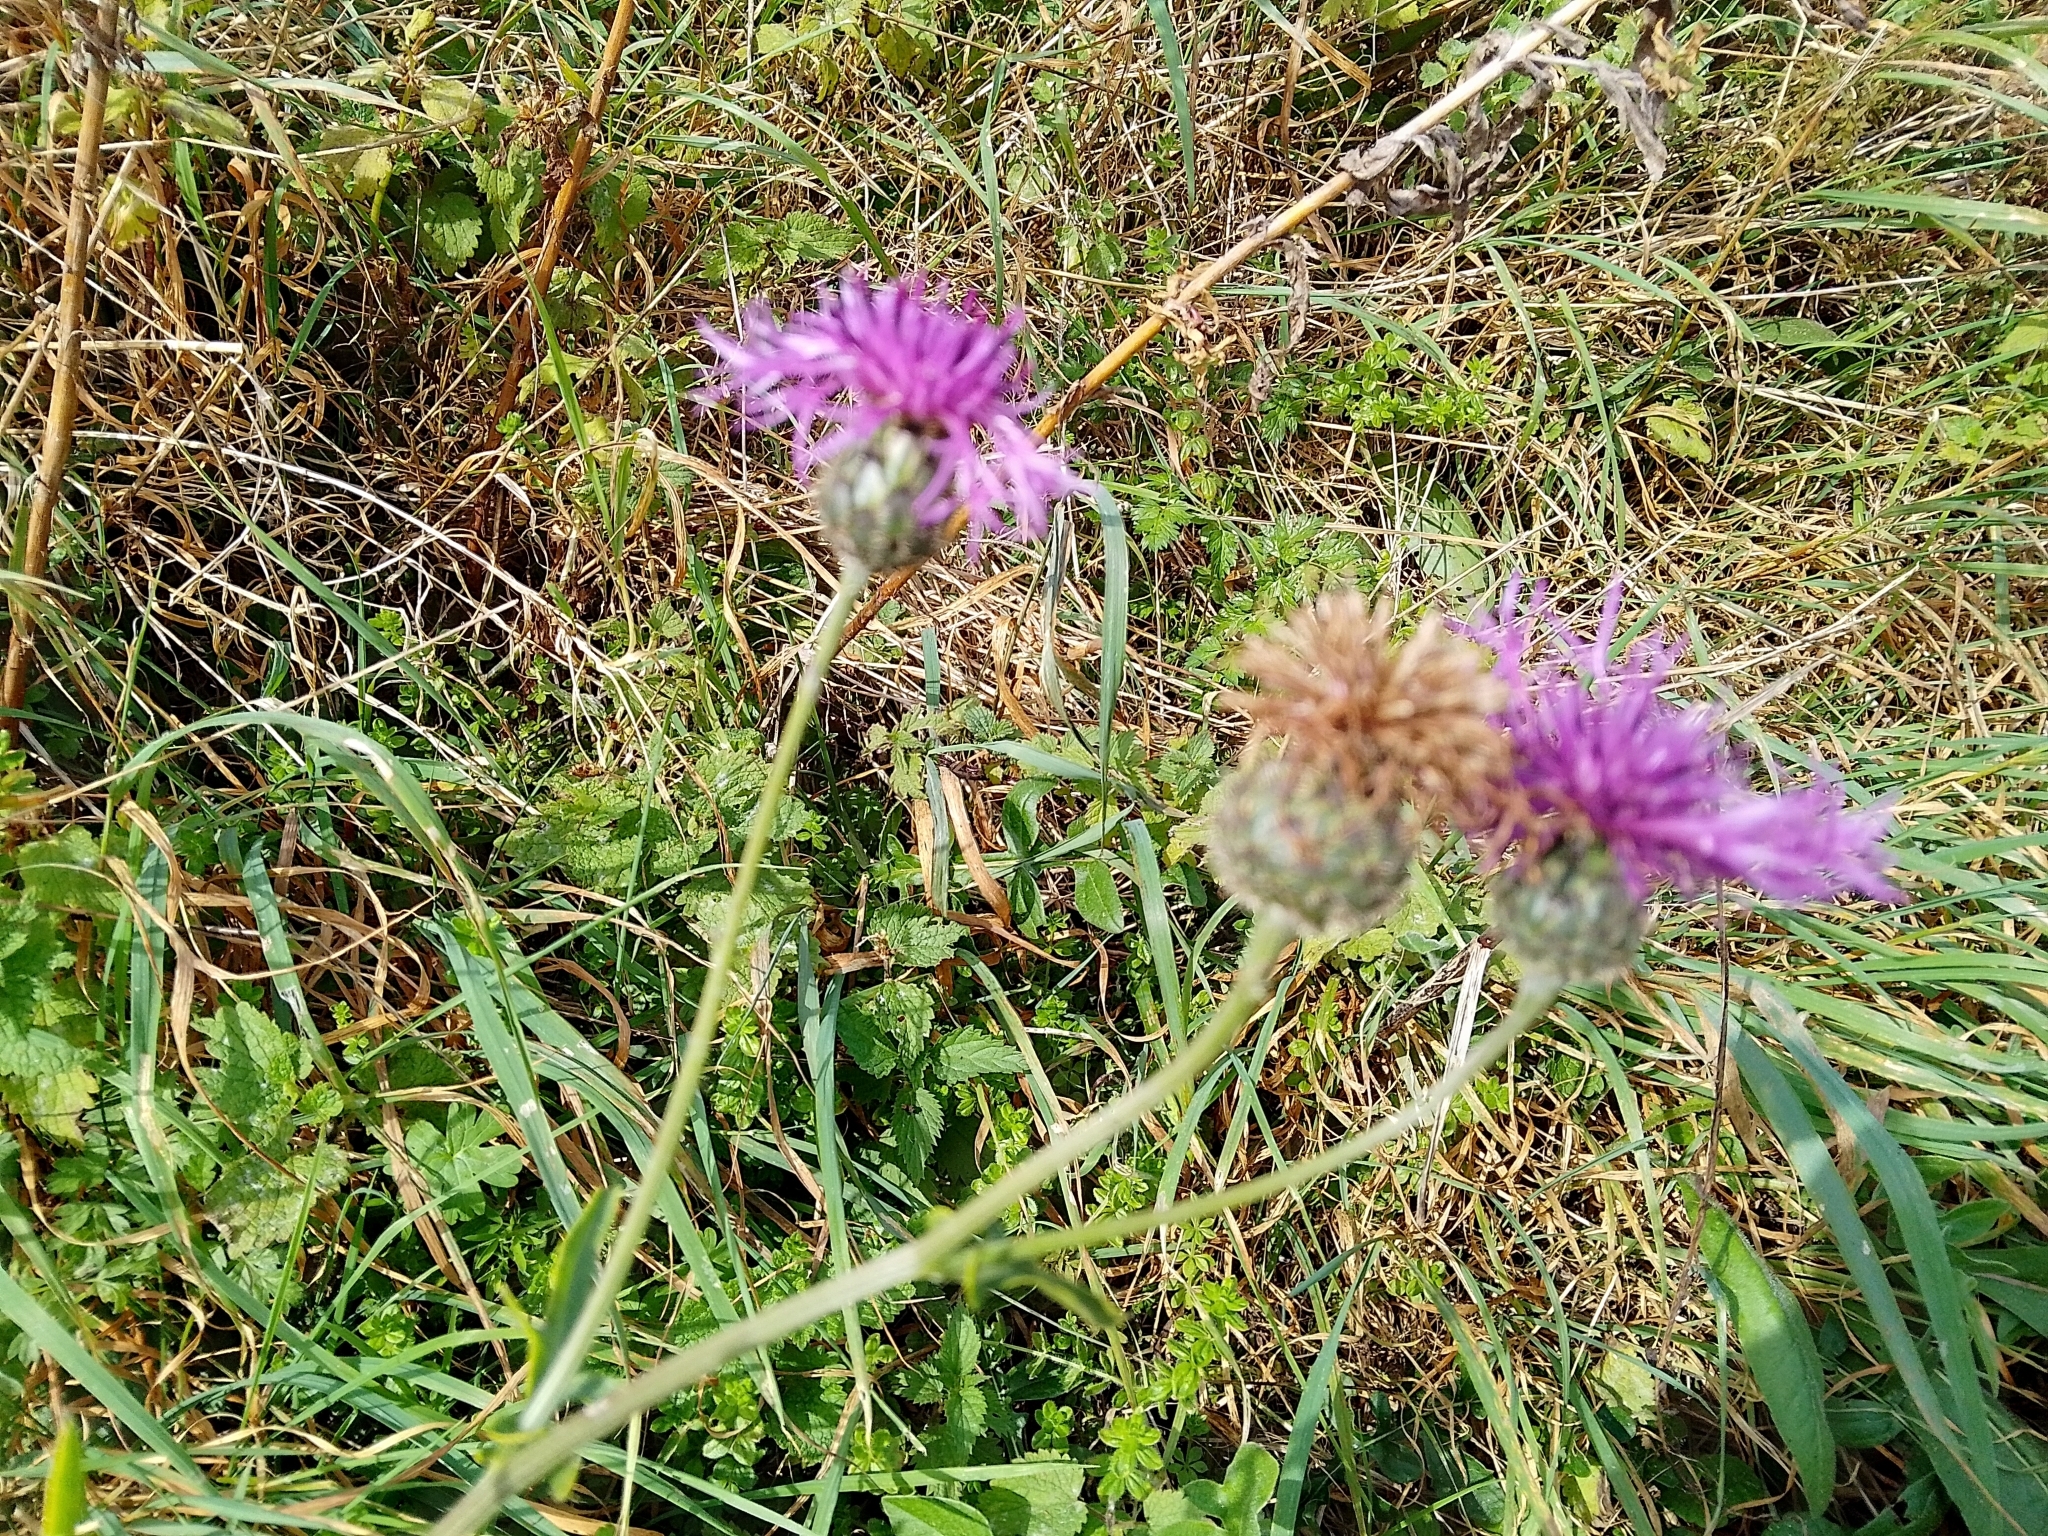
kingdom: Plantae
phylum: Tracheophyta
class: Magnoliopsida
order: Asterales
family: Asteraceae
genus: Centaurea
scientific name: Centaurea scabiosa
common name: Greater knapweed
